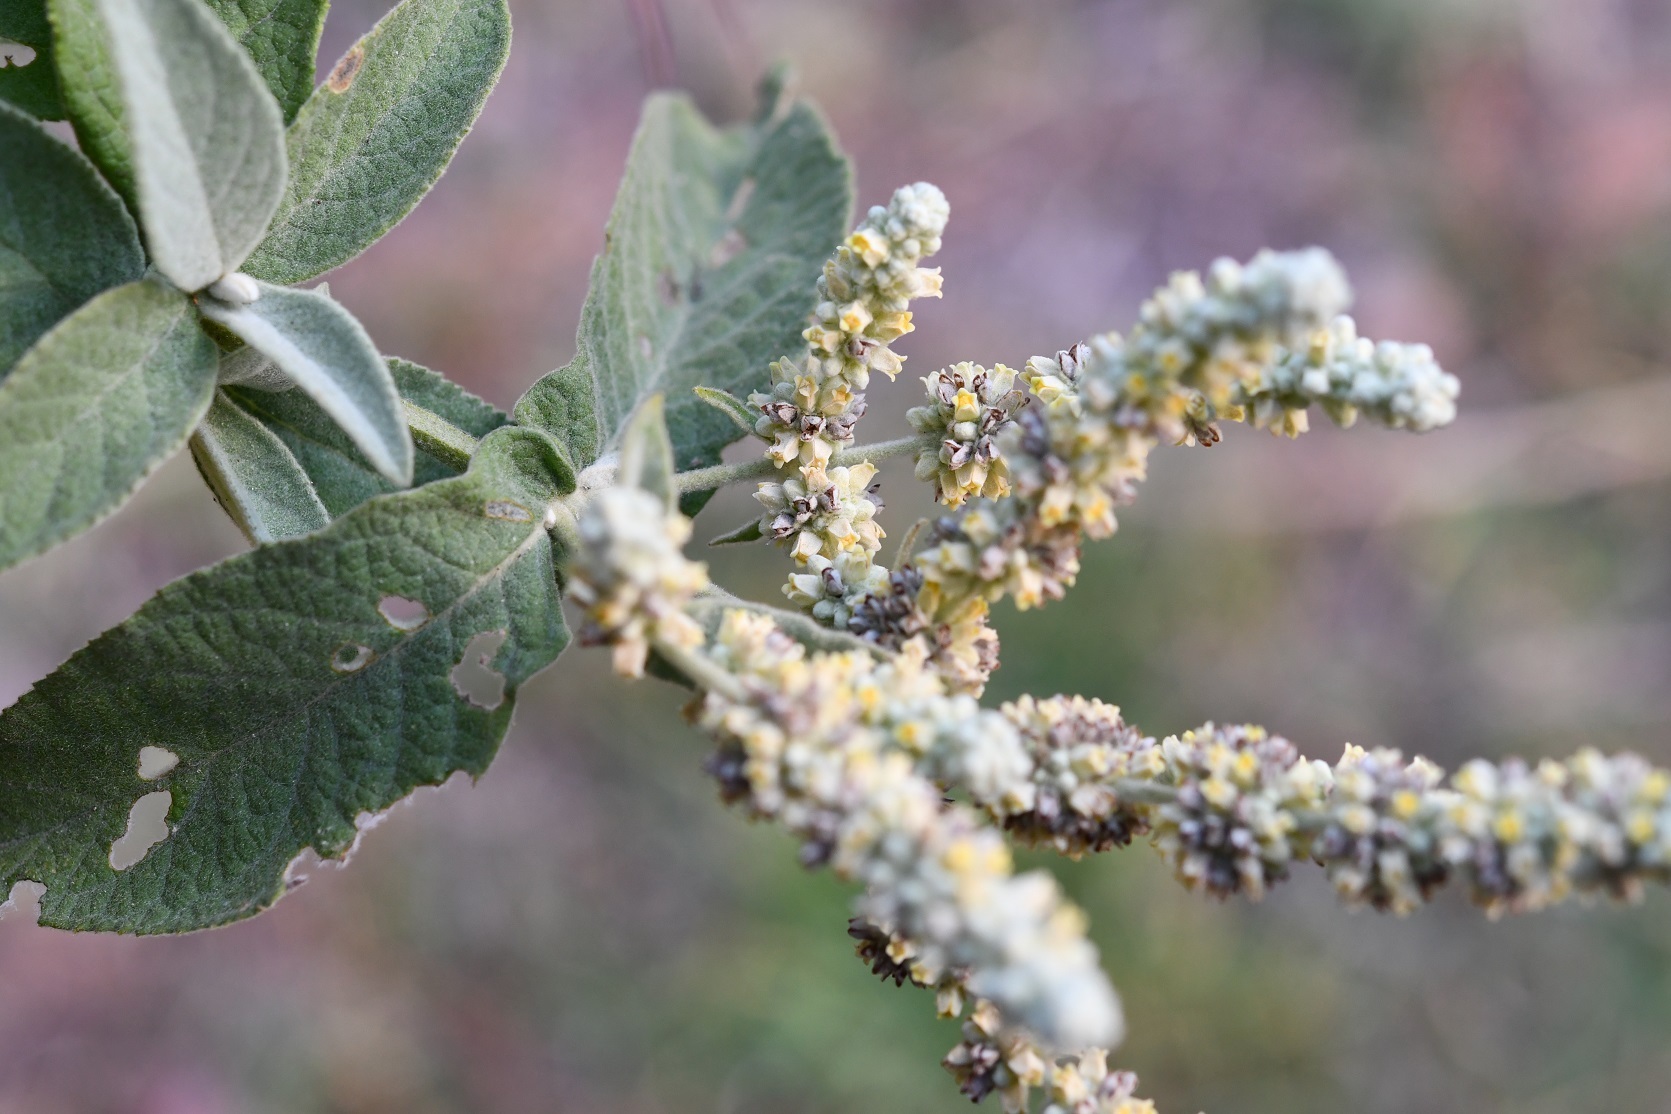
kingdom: Plantae
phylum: Tracheophyta
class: Magnoliopsida
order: Lamiales
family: Scrophulariaceae
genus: Buddleja
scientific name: Buddleja crotonoides
